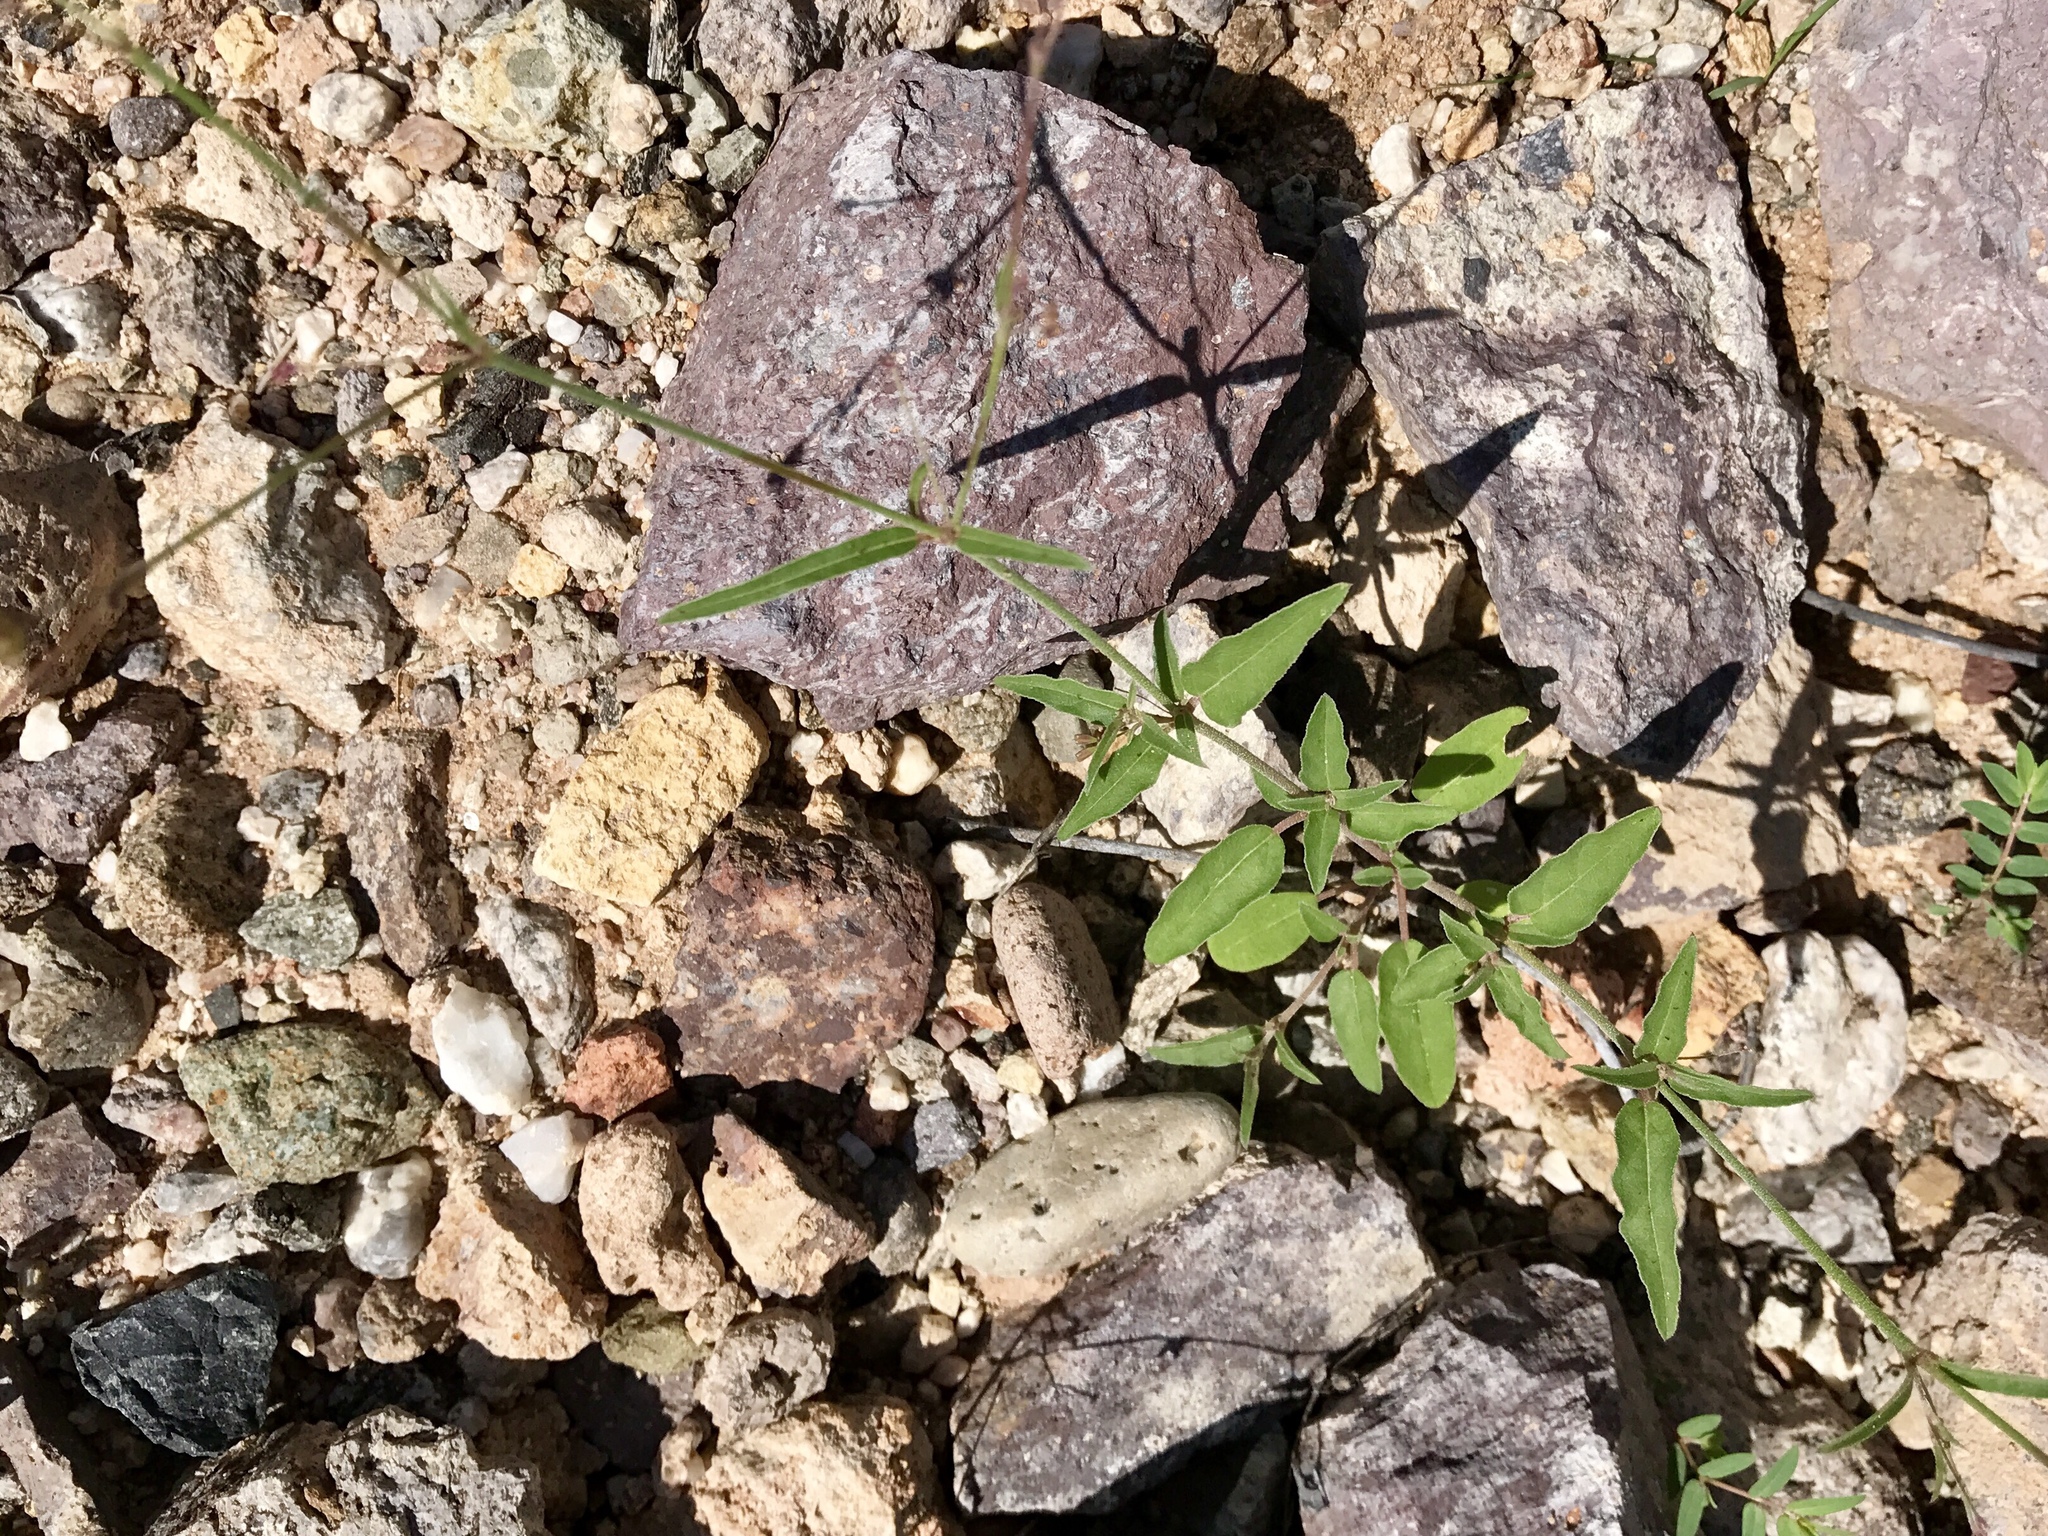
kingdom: Plantae
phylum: Tracheophyta
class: Magnoliopsida
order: Caryophyllales
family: Nyctaginaceae
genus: Boerhavia
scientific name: Boerhavia erecta
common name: Erect spiderling
